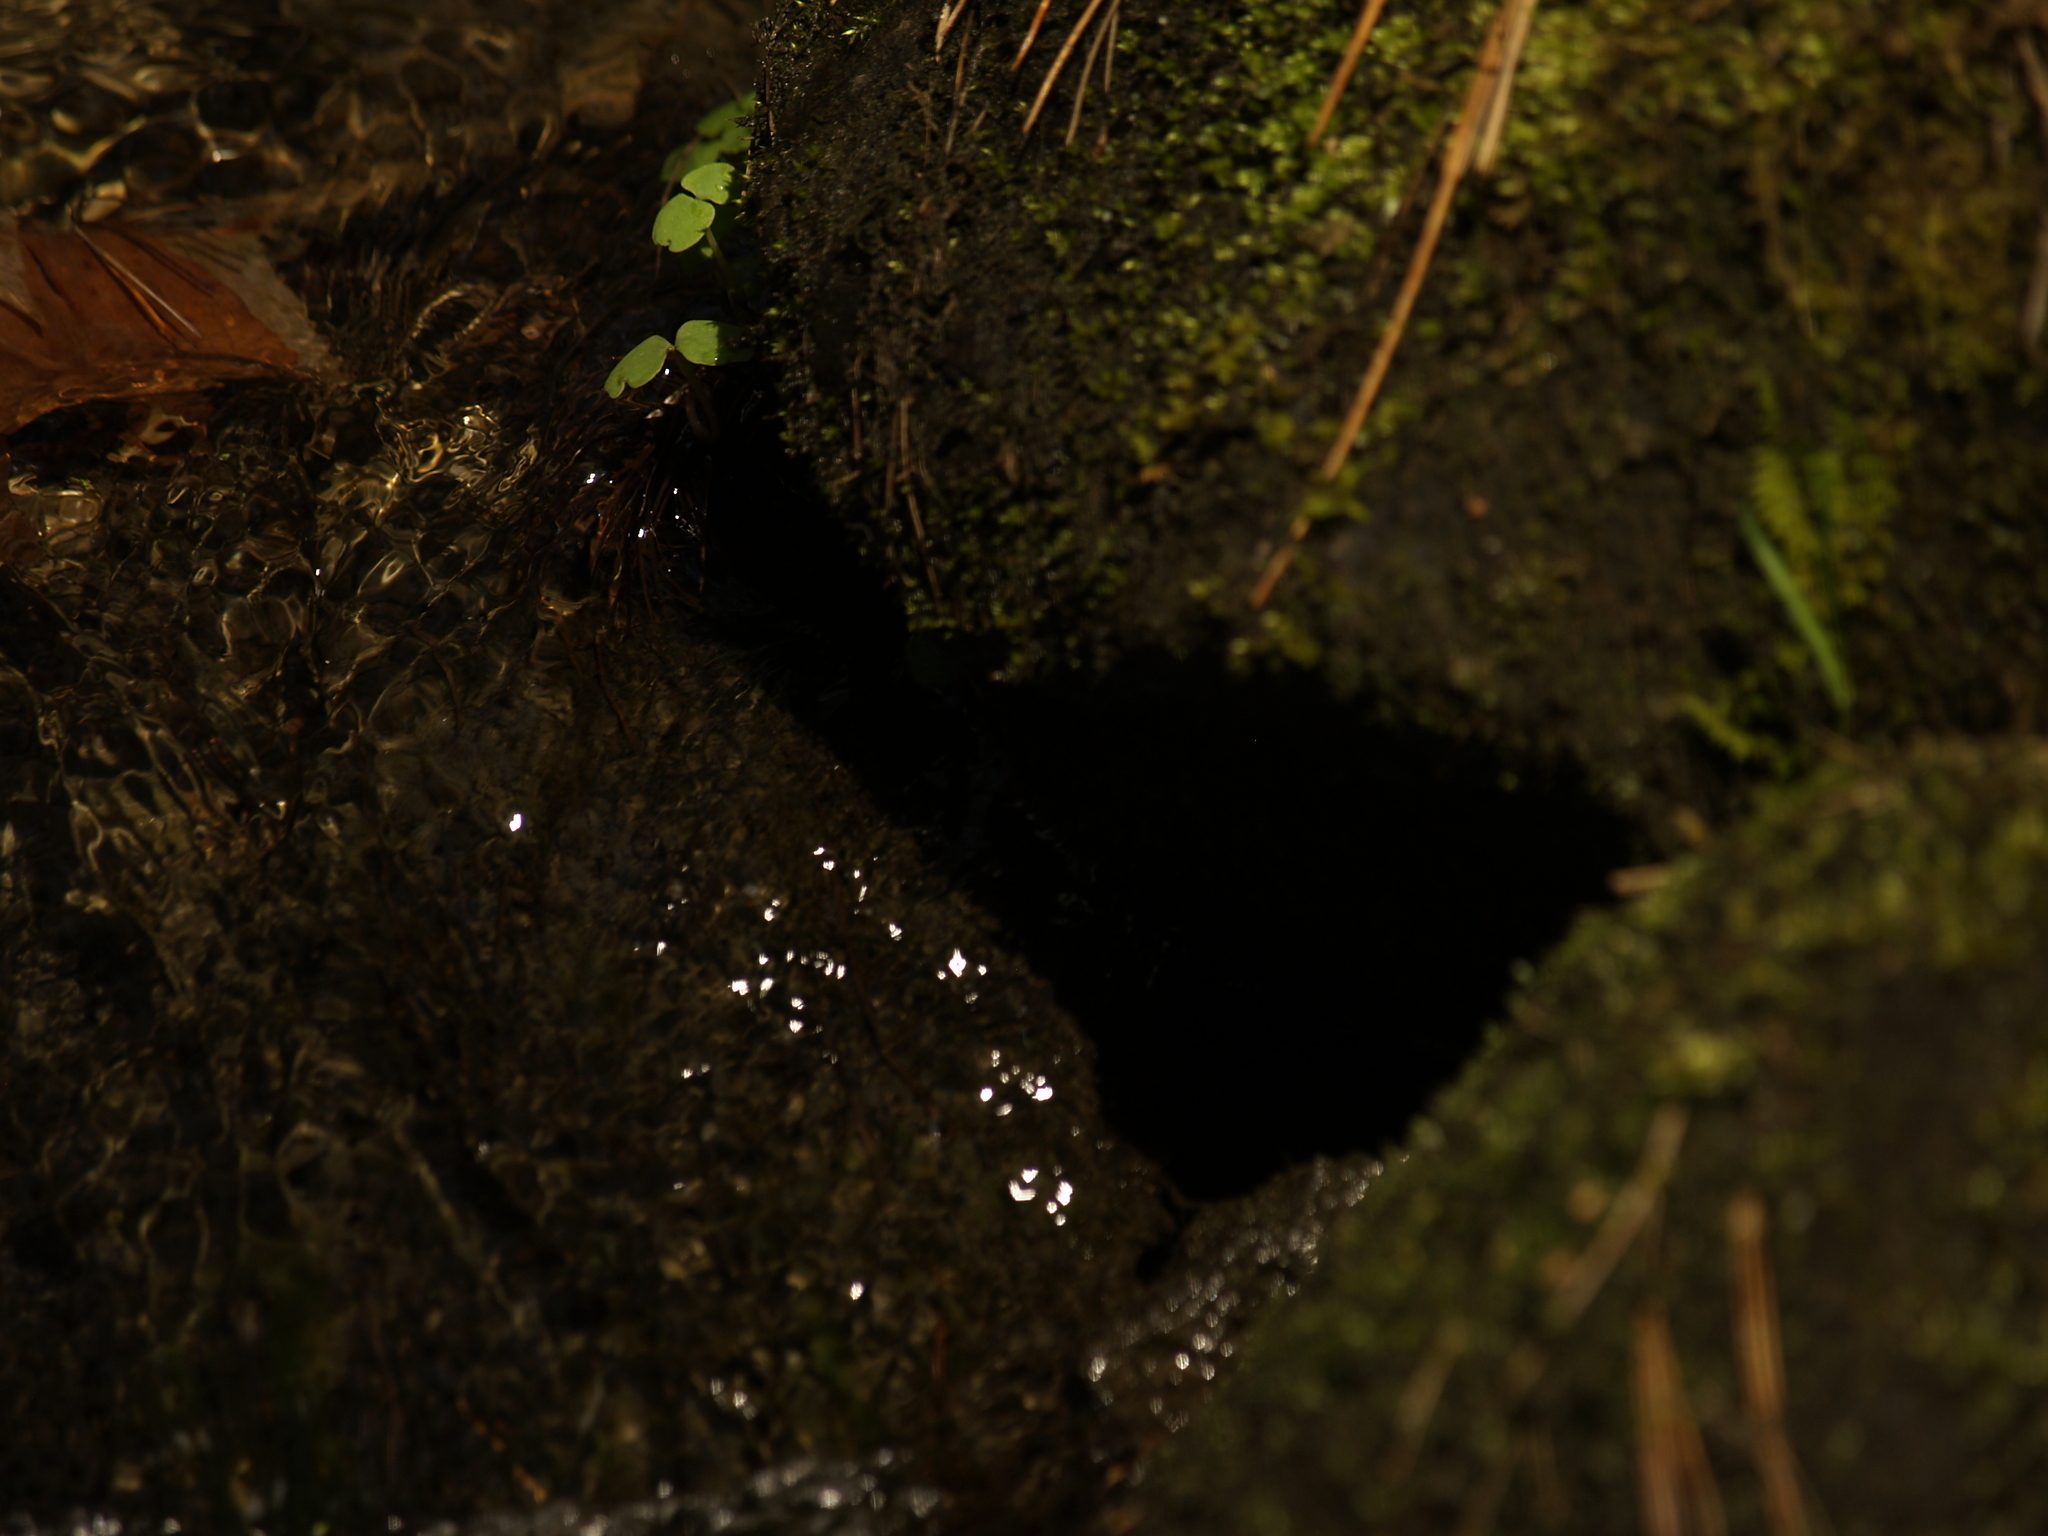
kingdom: Plantae
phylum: Tracheophyta
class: Magnoliopsida
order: Ericales
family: Balsaminaceae
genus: Impatiens
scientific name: Impatiens
